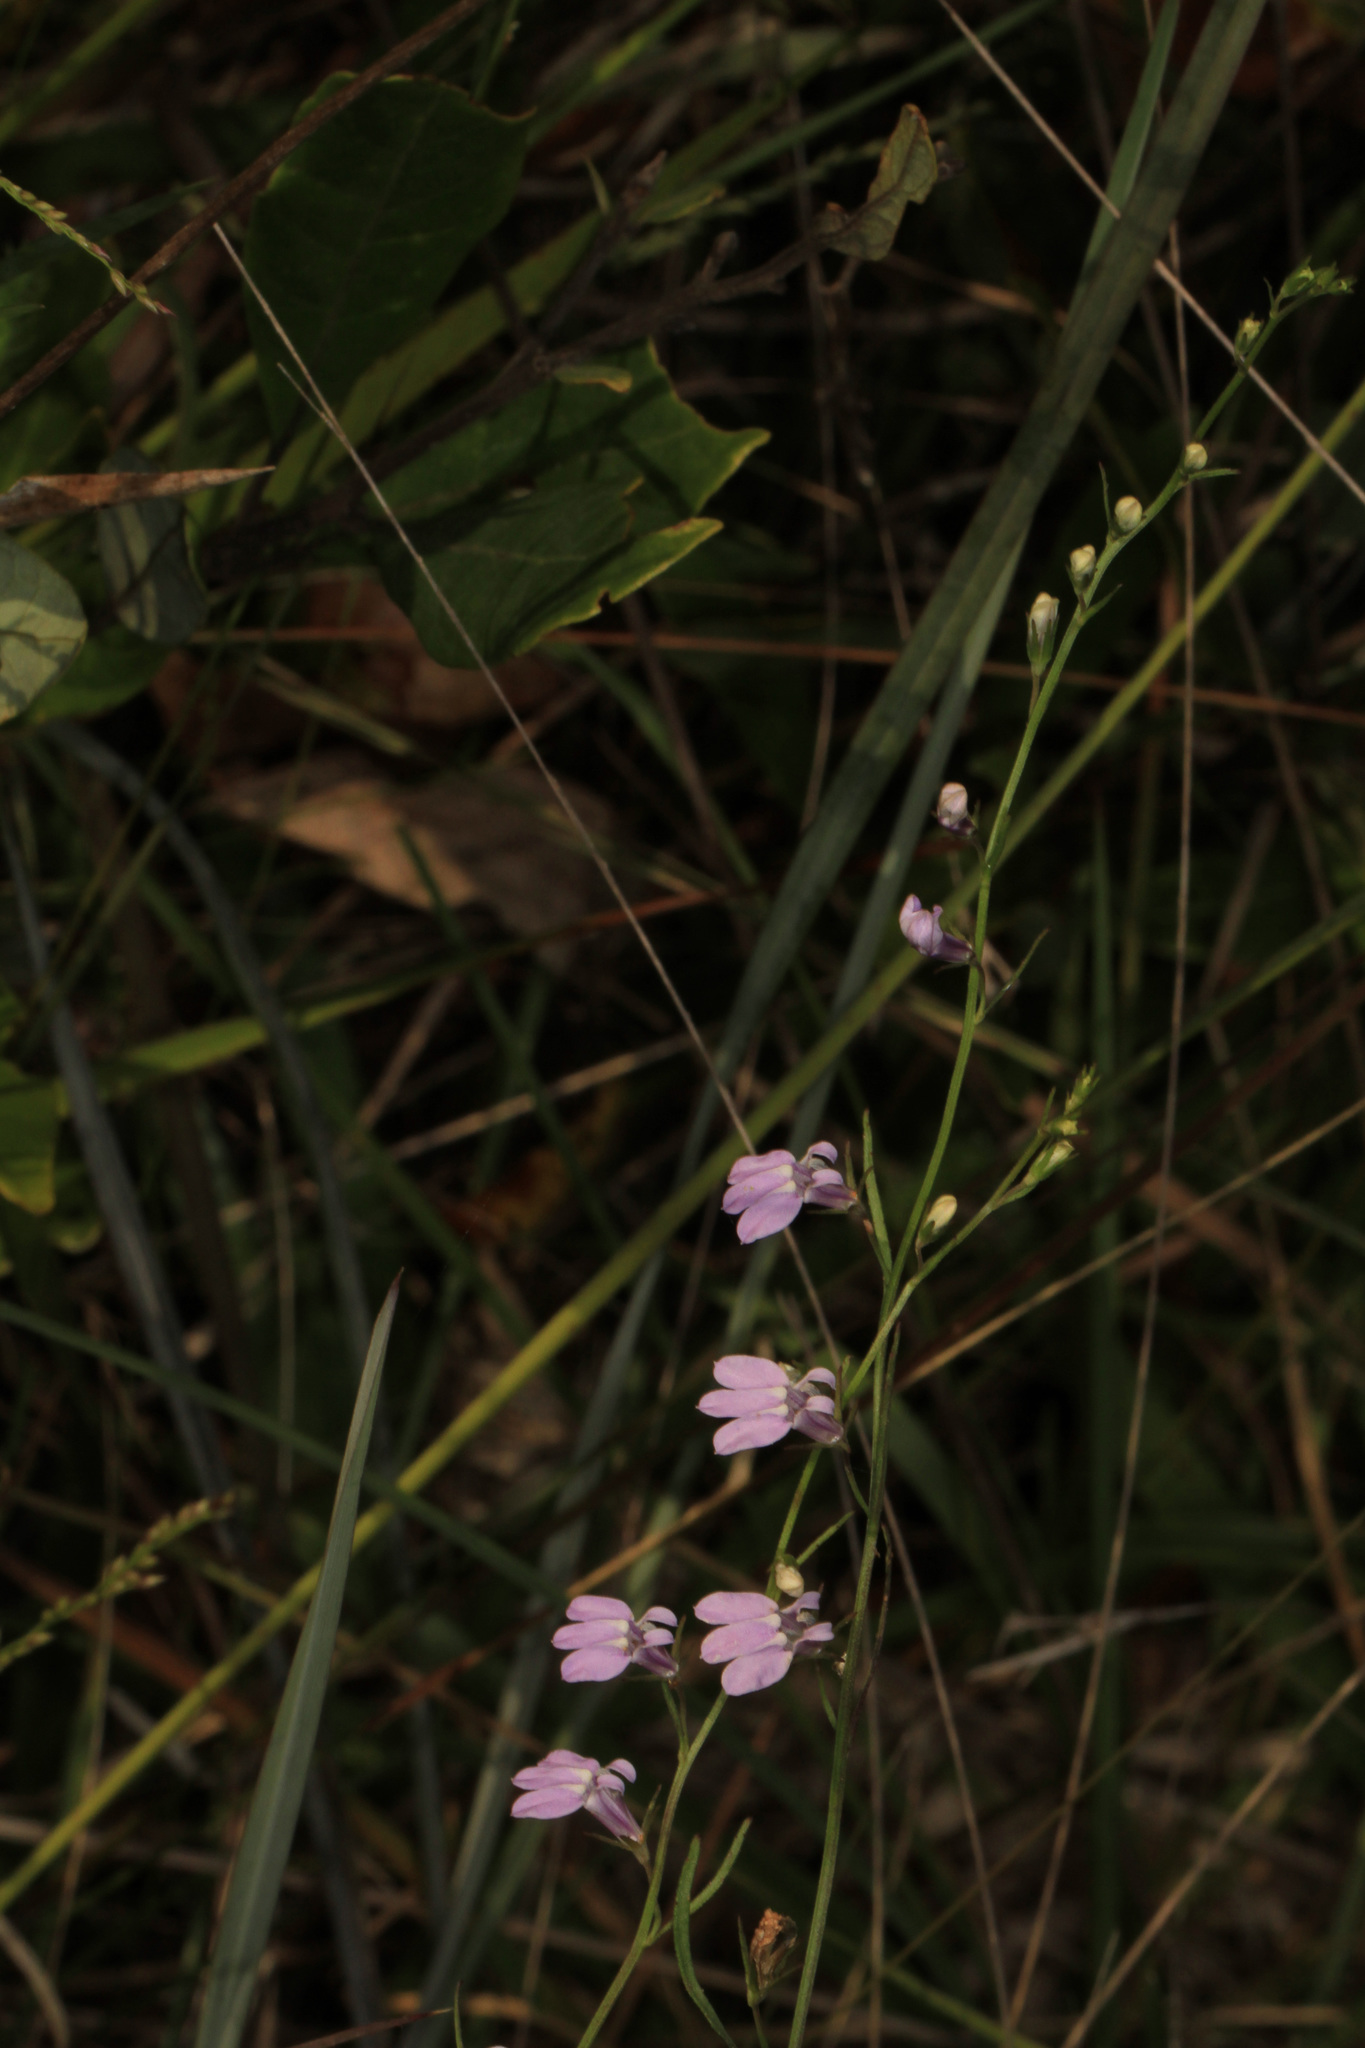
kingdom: Plantae
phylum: Tracheophyta
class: Magnoliopsida
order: Asterales
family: Campanulaceae
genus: Lobelia
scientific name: Lobelia canbyi
